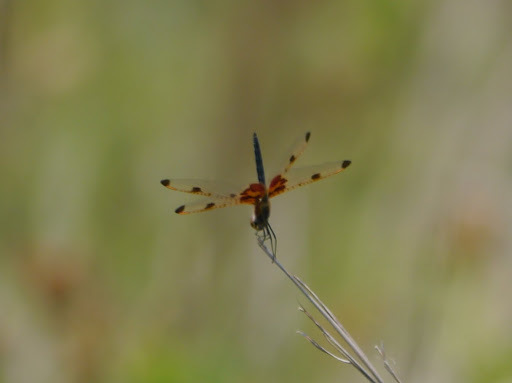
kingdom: Animalia
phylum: Arthropoda
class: Insecta
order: Odonata
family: Libellulidae
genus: Celithemis
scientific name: Celithemis elisa
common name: Calico pennant
